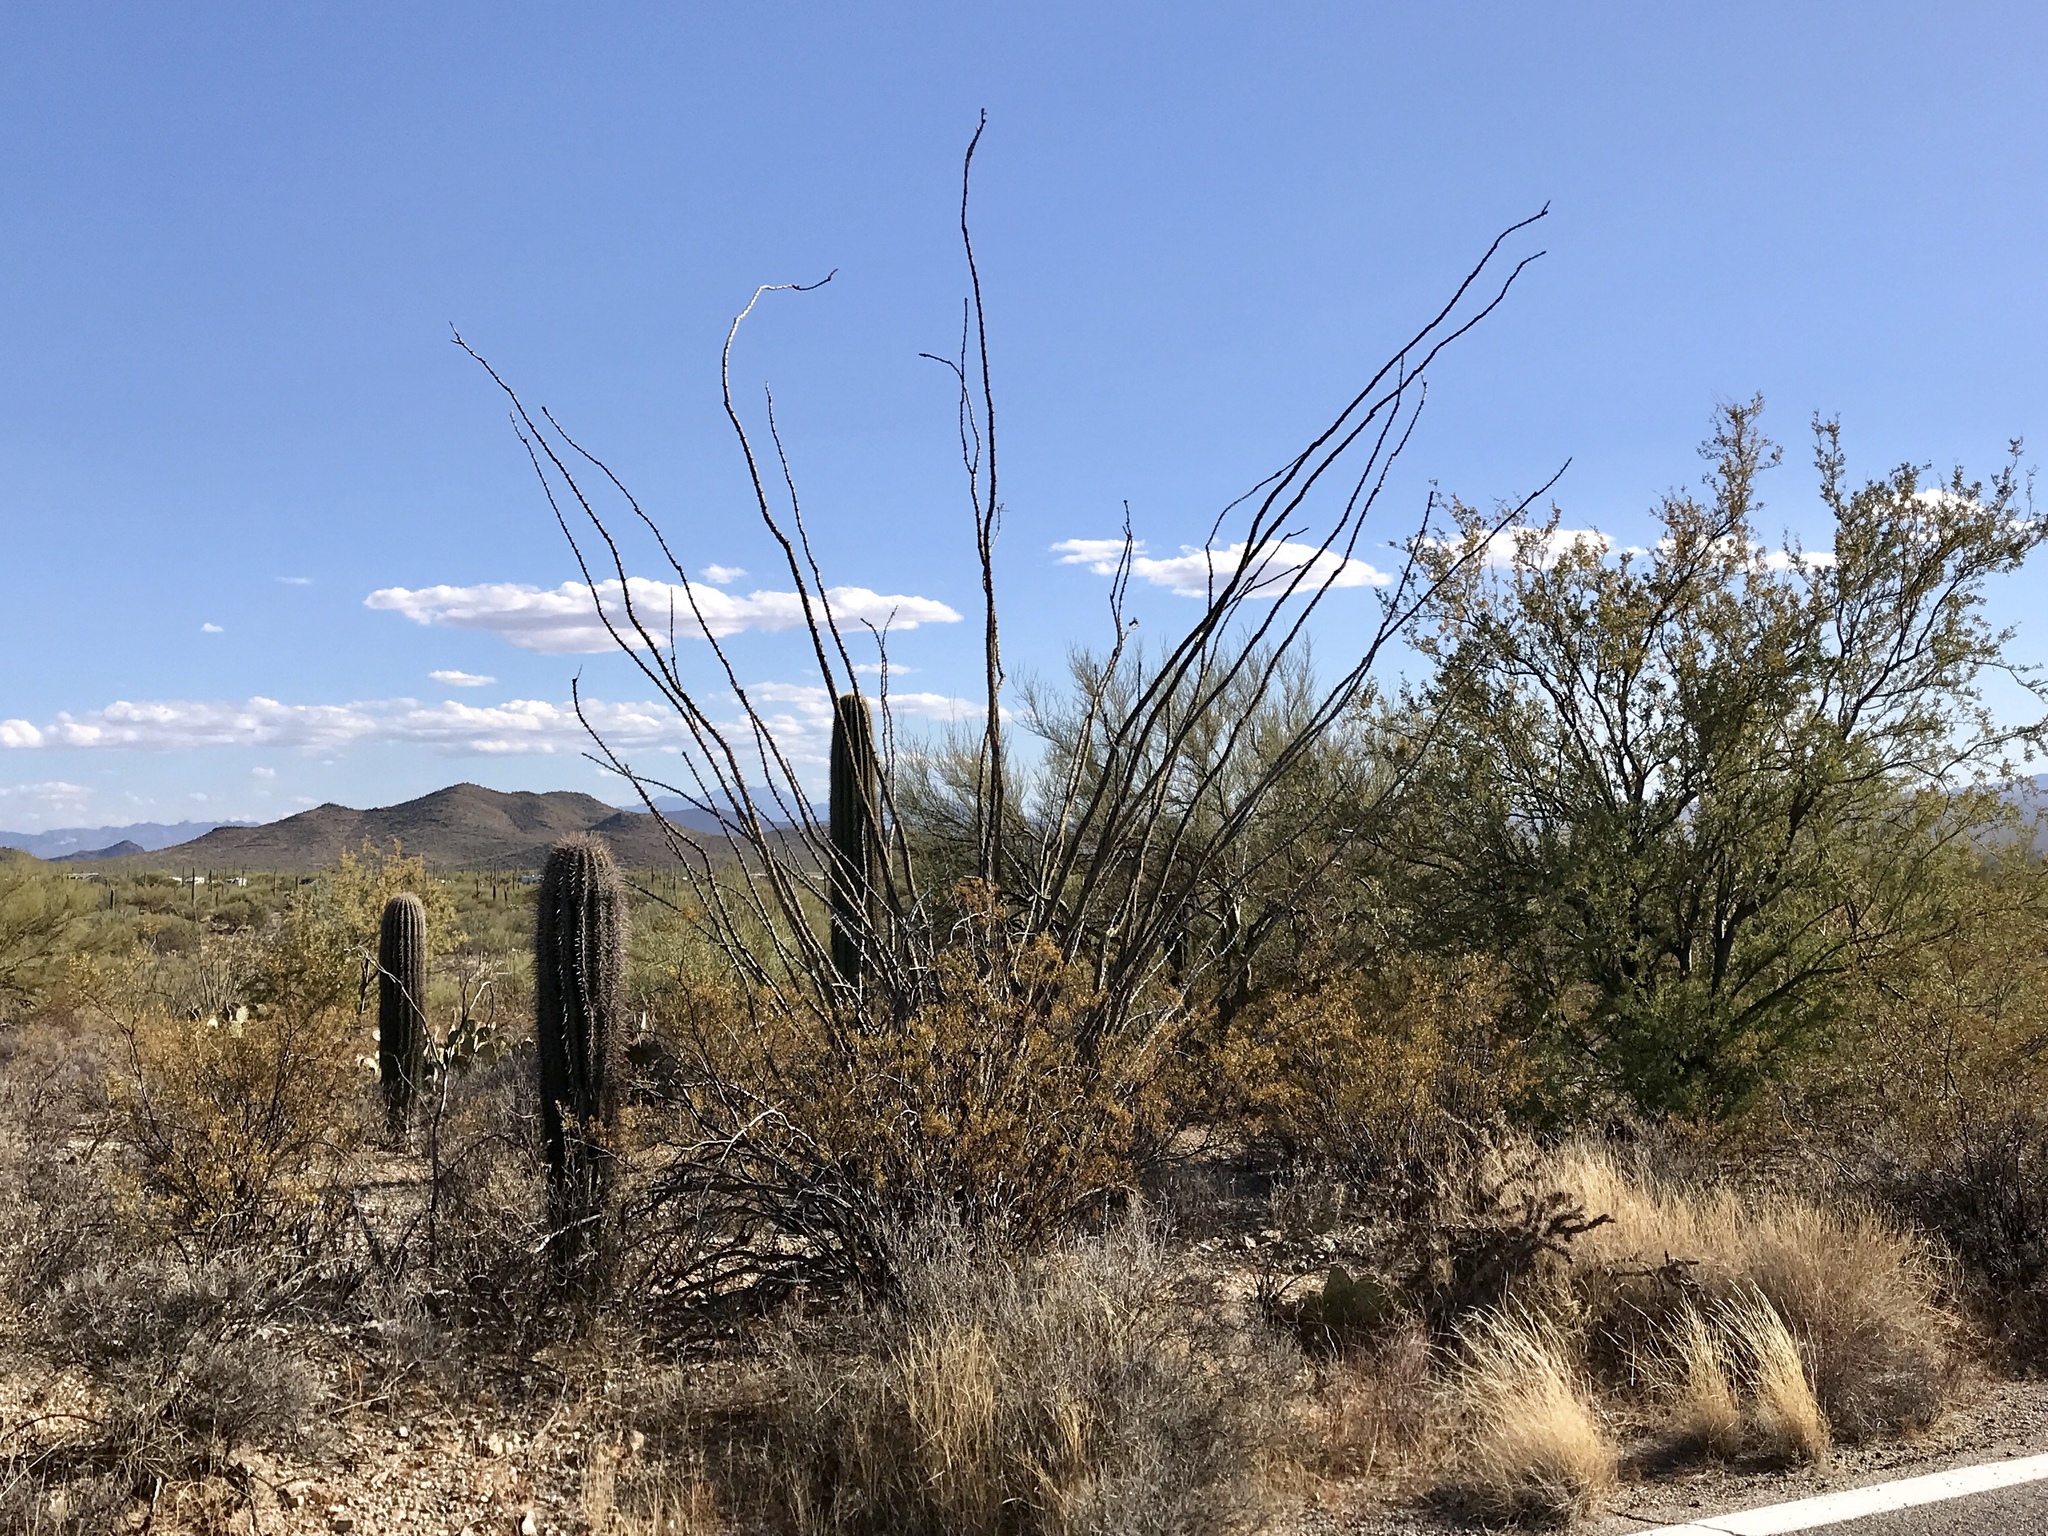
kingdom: Plantae
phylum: Tracheophyta
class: Magnoliopsida
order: Ericales
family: Fouquieriaceae
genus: Fouquieria
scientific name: Fouquieria splendens
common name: Vine-cactus
